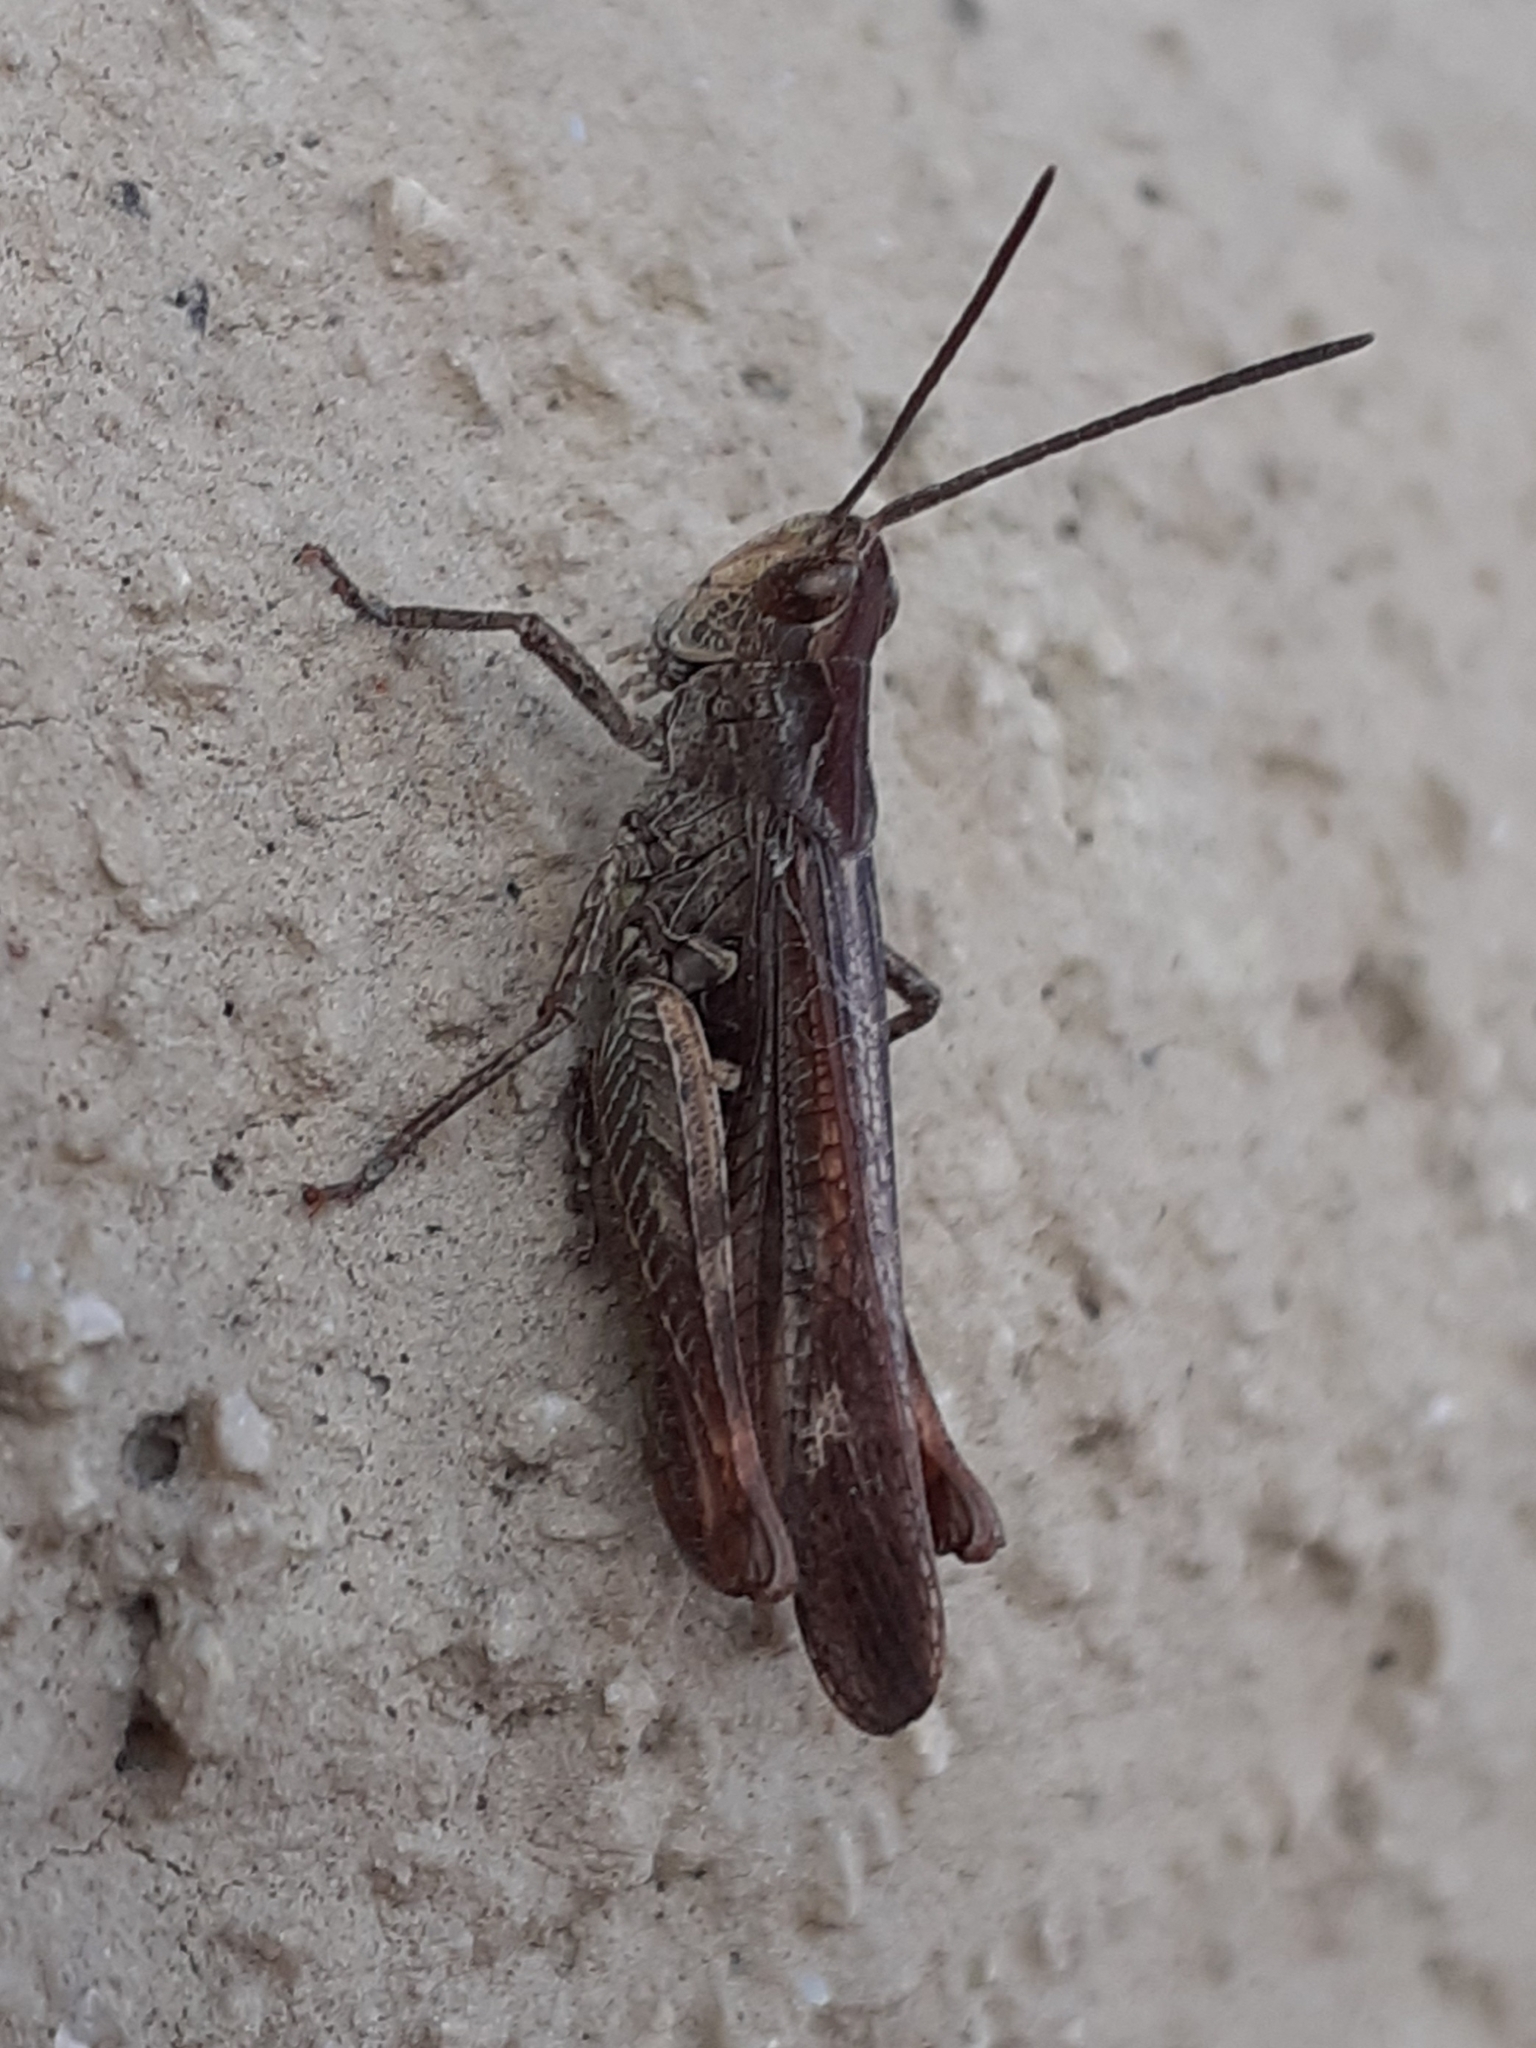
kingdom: Animalia
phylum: Arthropoda
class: Insecta
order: Orthoptera
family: Acrididae
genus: Chorthippus
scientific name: Chorthippus biguttulus
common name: Bow-winged grasshopper
